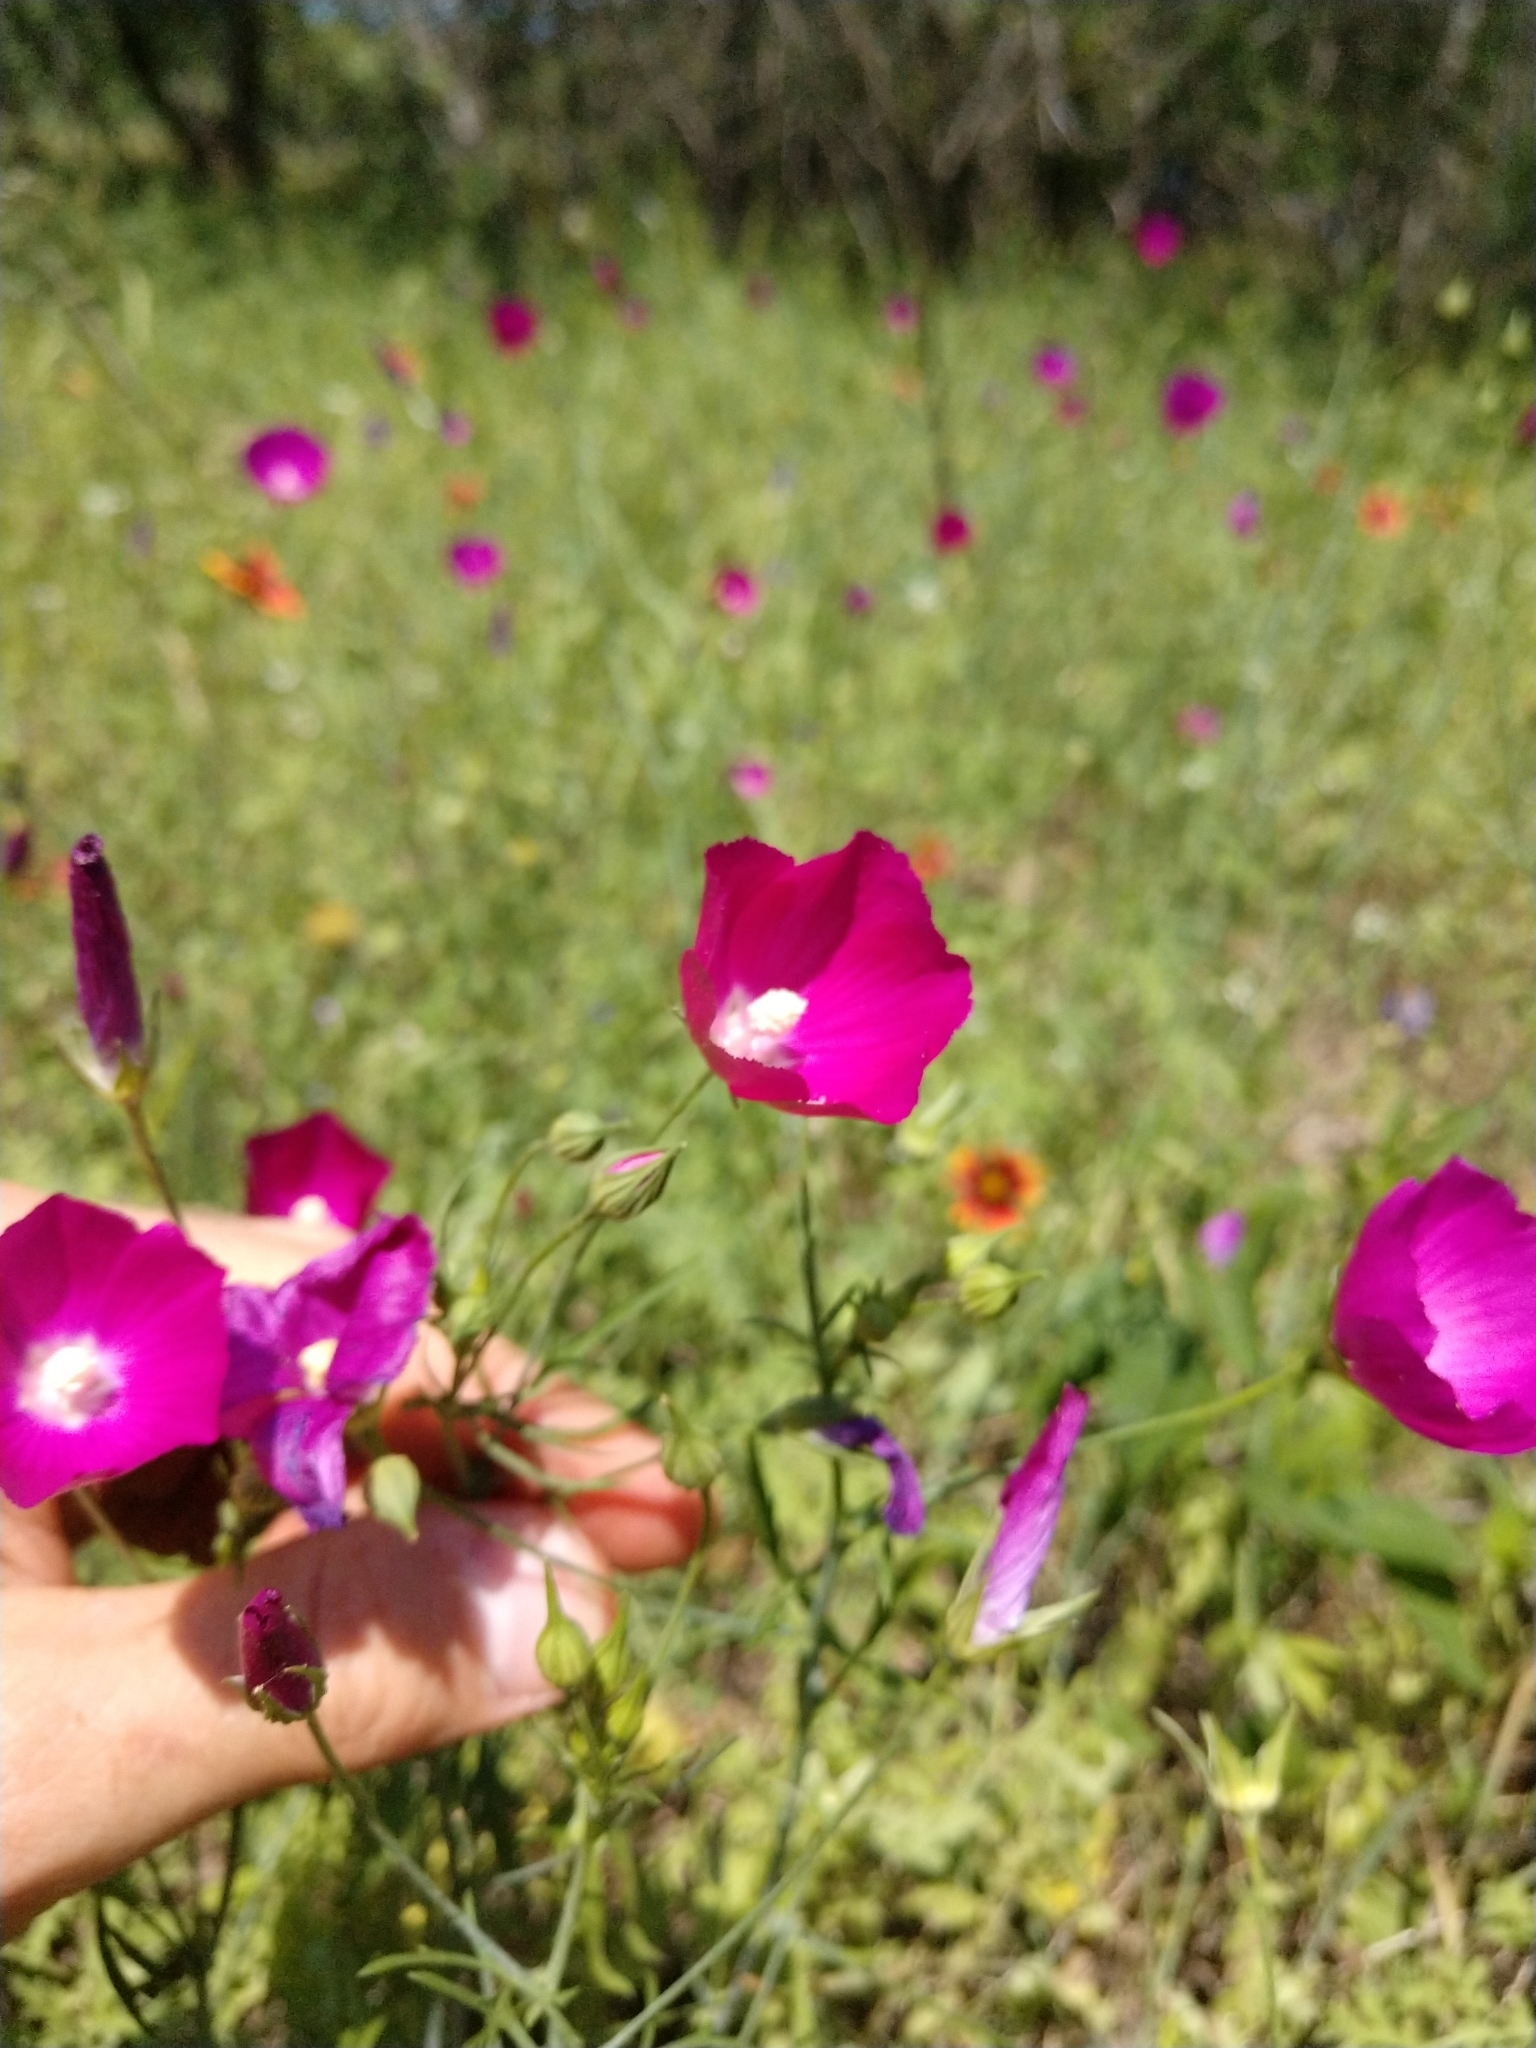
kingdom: Plantae
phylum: Tracheophyta
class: Magnoliopsida
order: Malvales
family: Malvaceae
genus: Callirhoe
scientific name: Callirhoe leiocarpa
